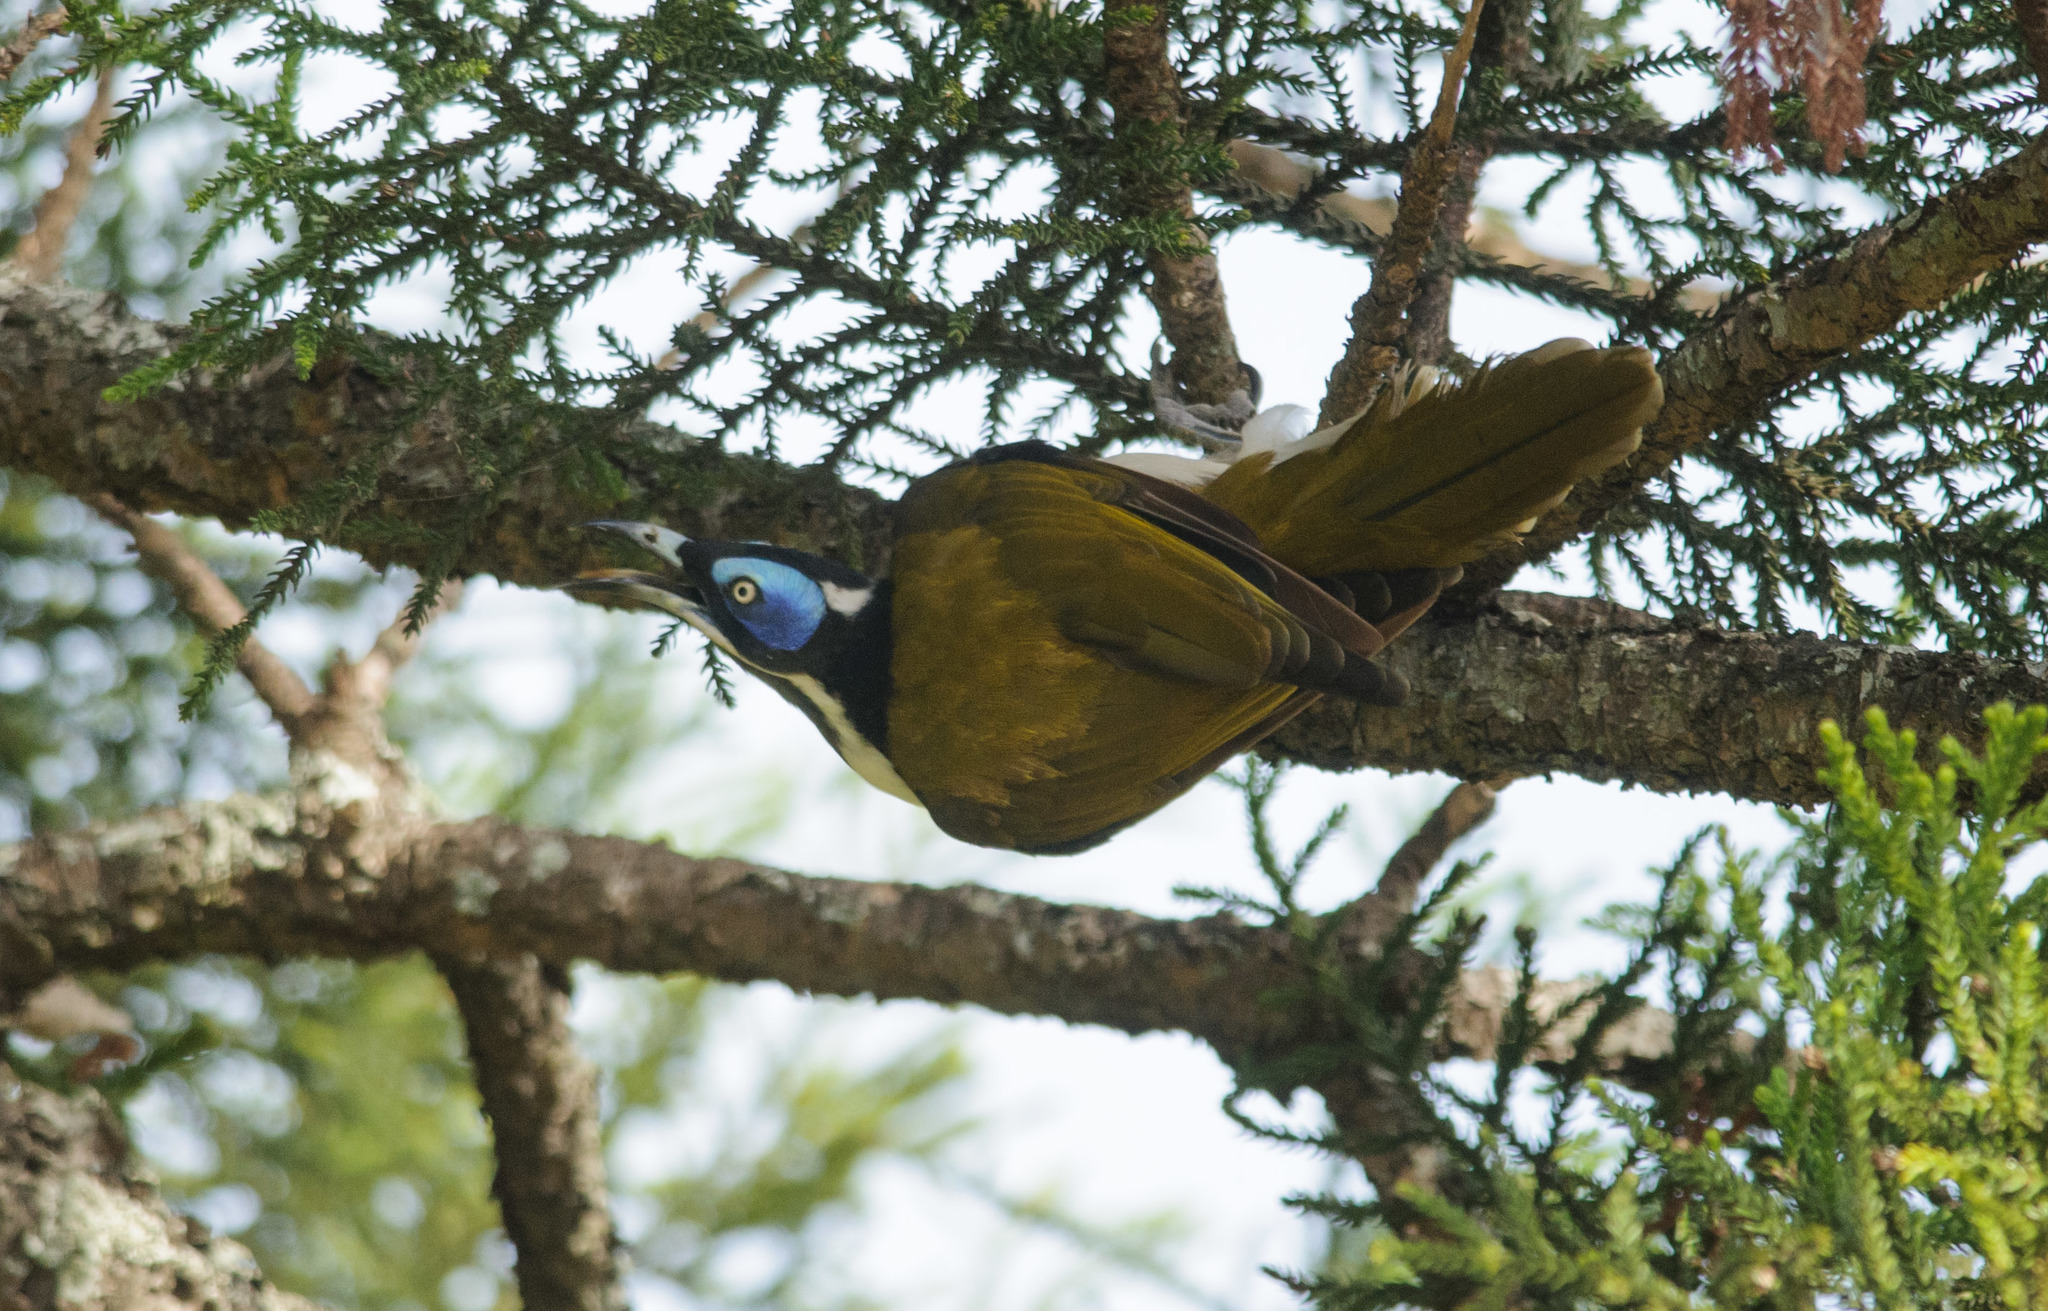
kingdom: Animalia
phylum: Chordata
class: Aves
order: Passeriformes
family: Meliphagidae
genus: Entomyzon
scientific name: Entomyzon cyanotis
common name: Blue-faced honeyeater
